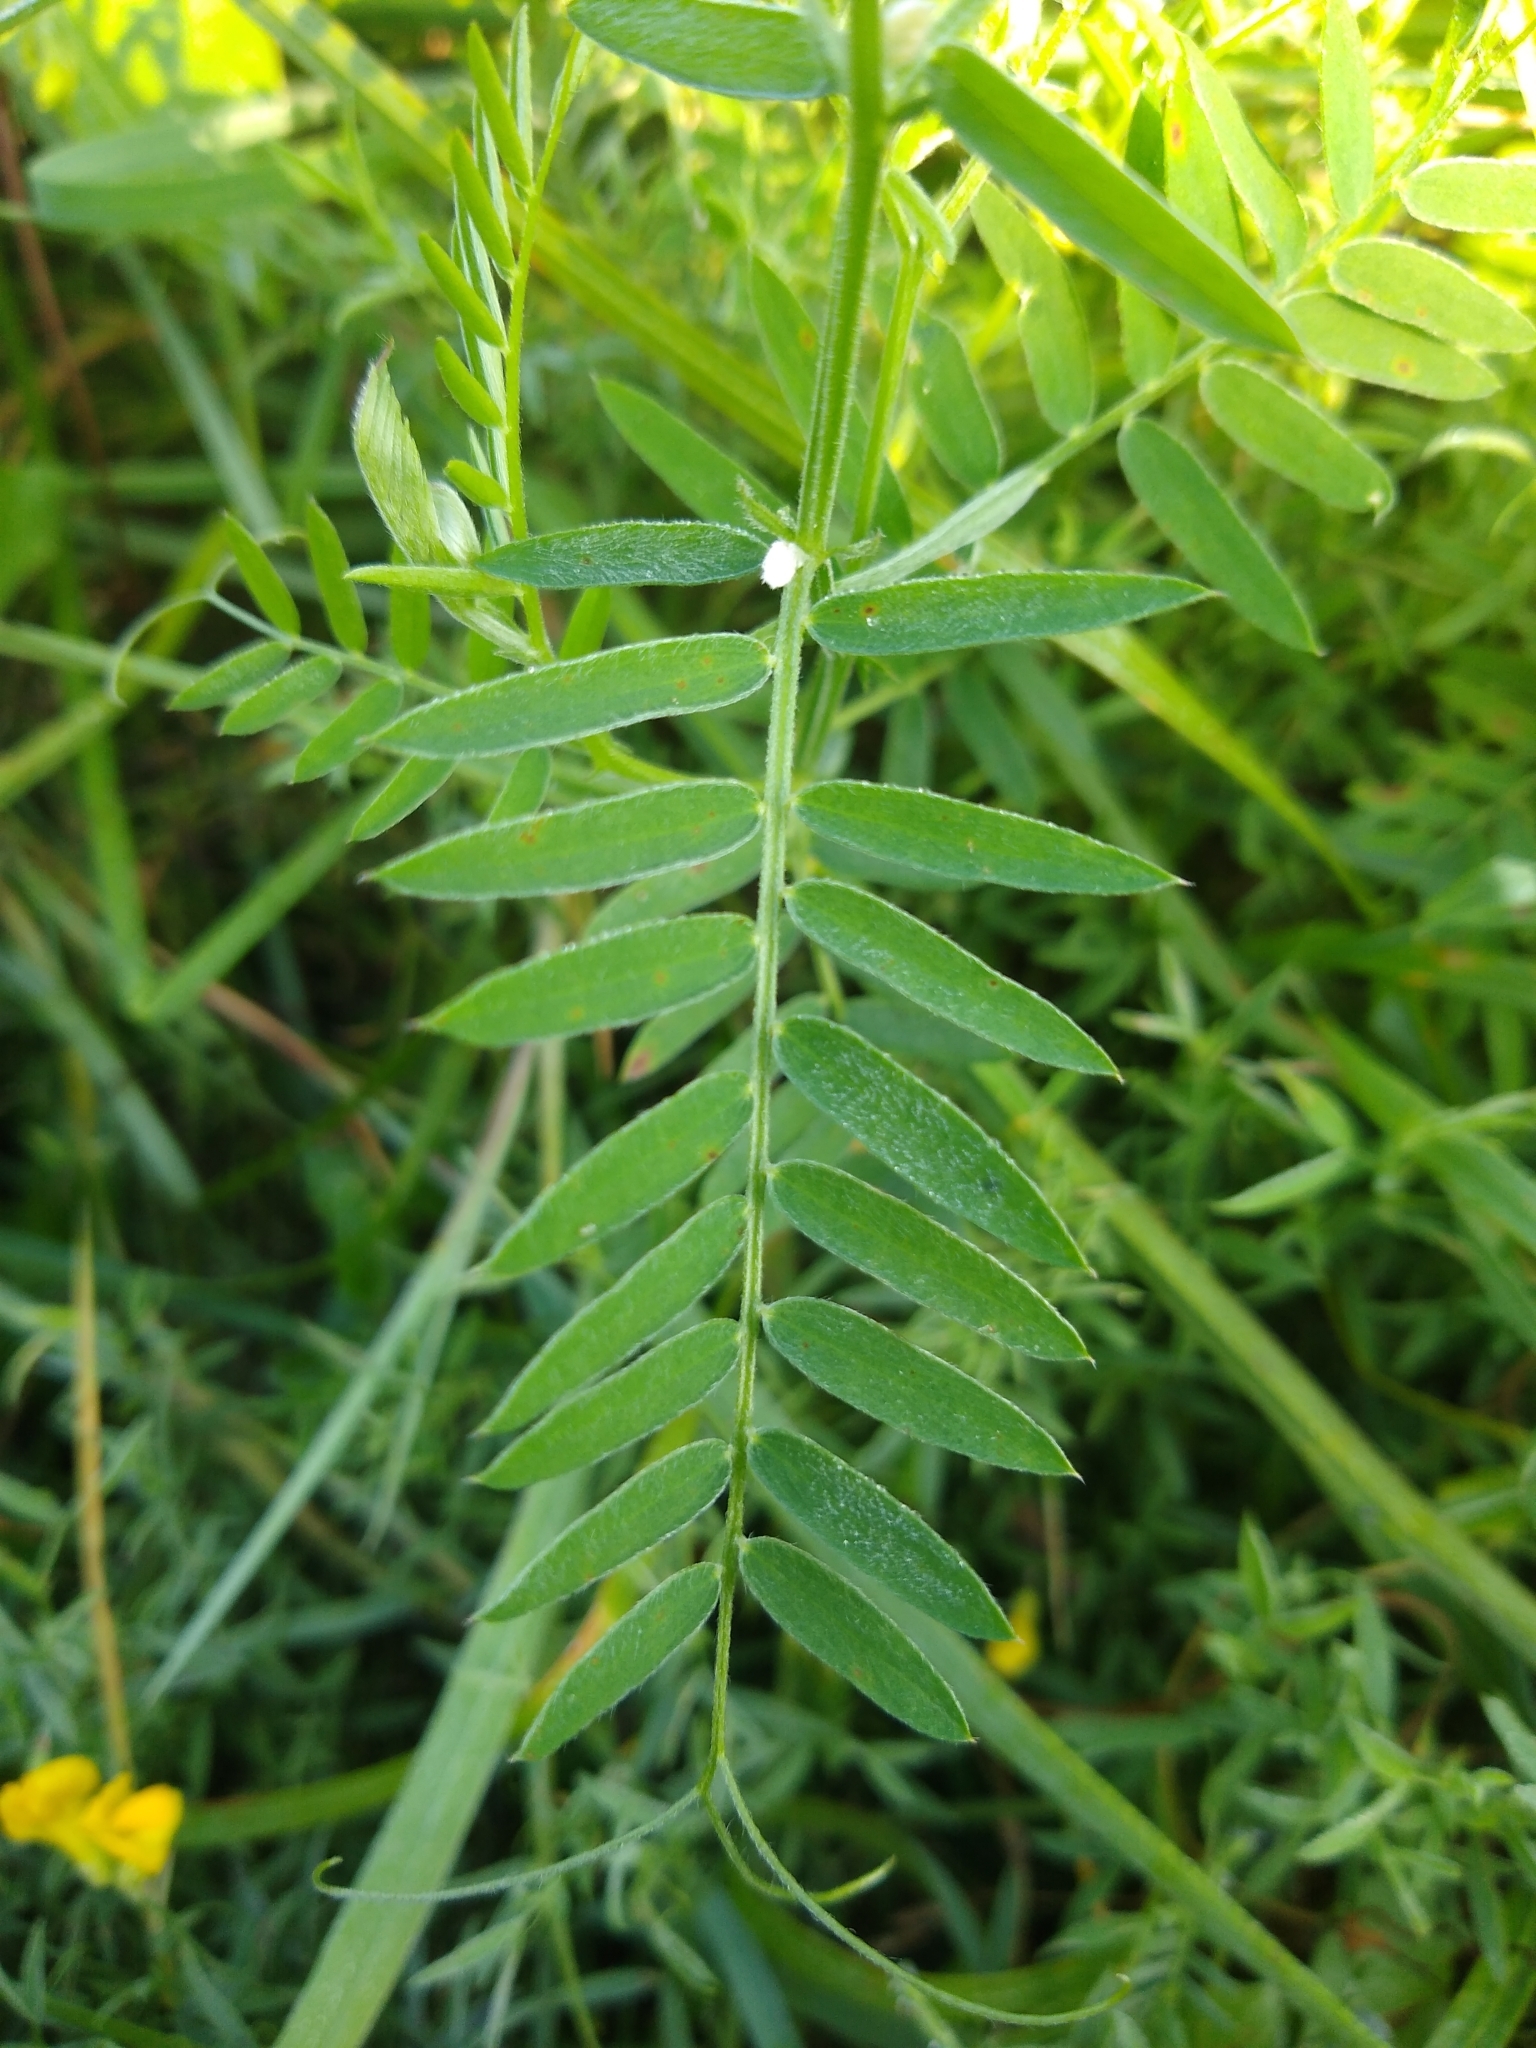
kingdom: Plantae
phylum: Tracheophyta
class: Magnoliopsida
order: Fabales
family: Fabaceae
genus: Lathyrus
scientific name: Lathyrus pratensis
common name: Meadow vetchling
